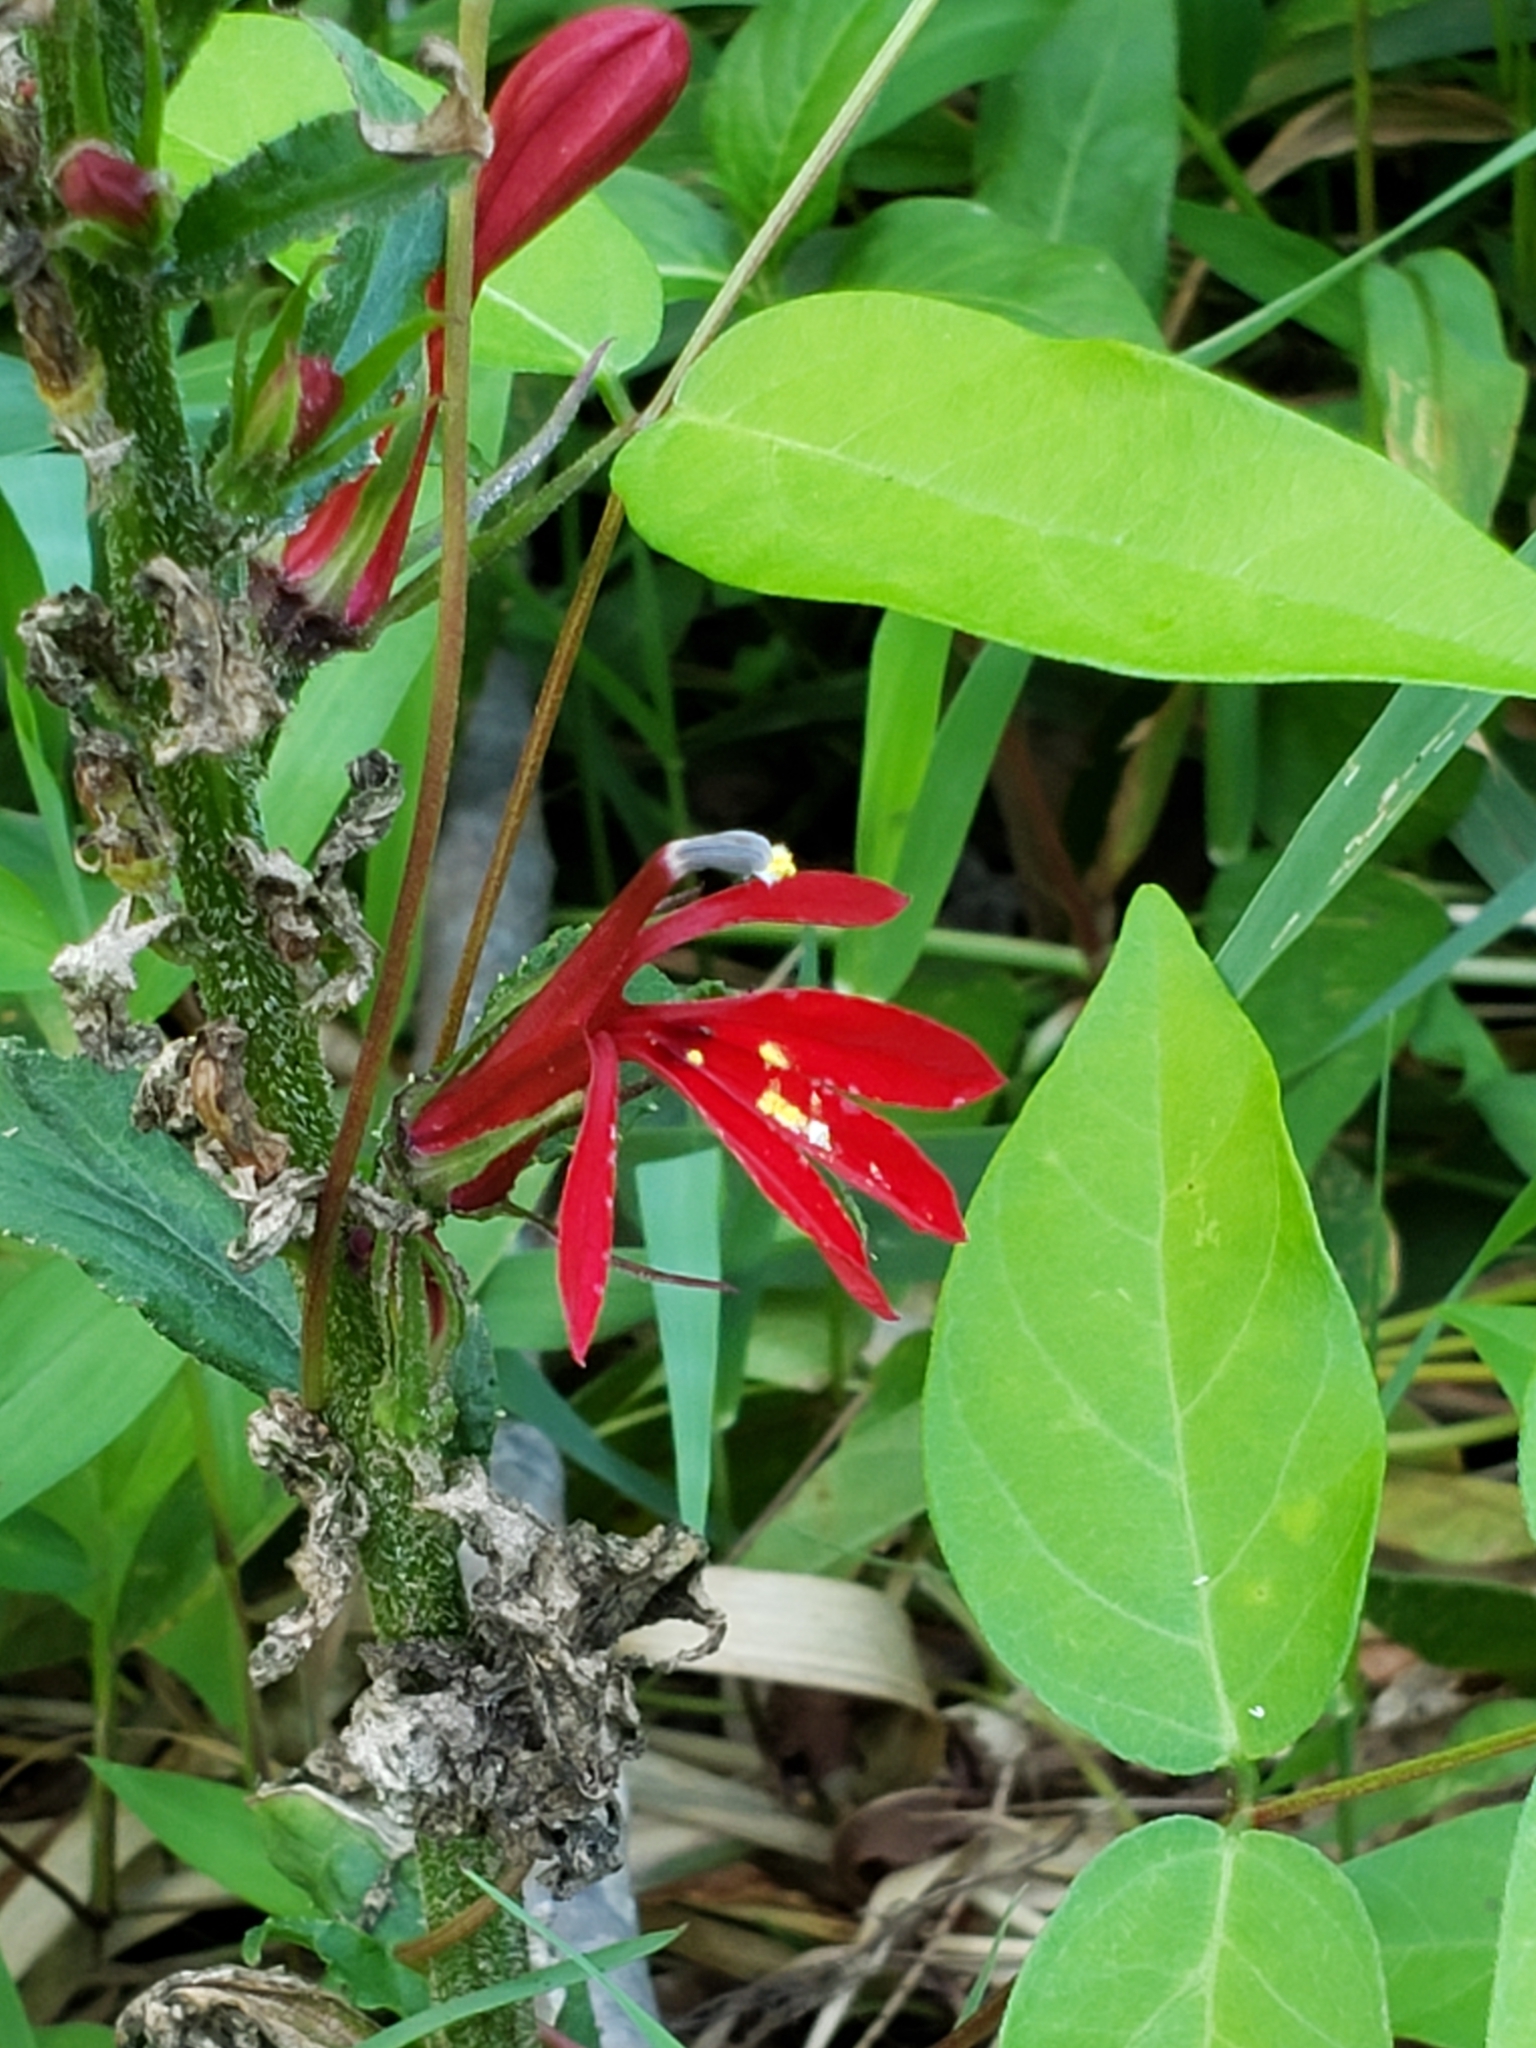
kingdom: Plantae
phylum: Tracheophyta
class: Magnoliopsida
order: Asterales
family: Campanulaceae
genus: Lobelia
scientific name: Lobelia cardinalis
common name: Cardinal flower
